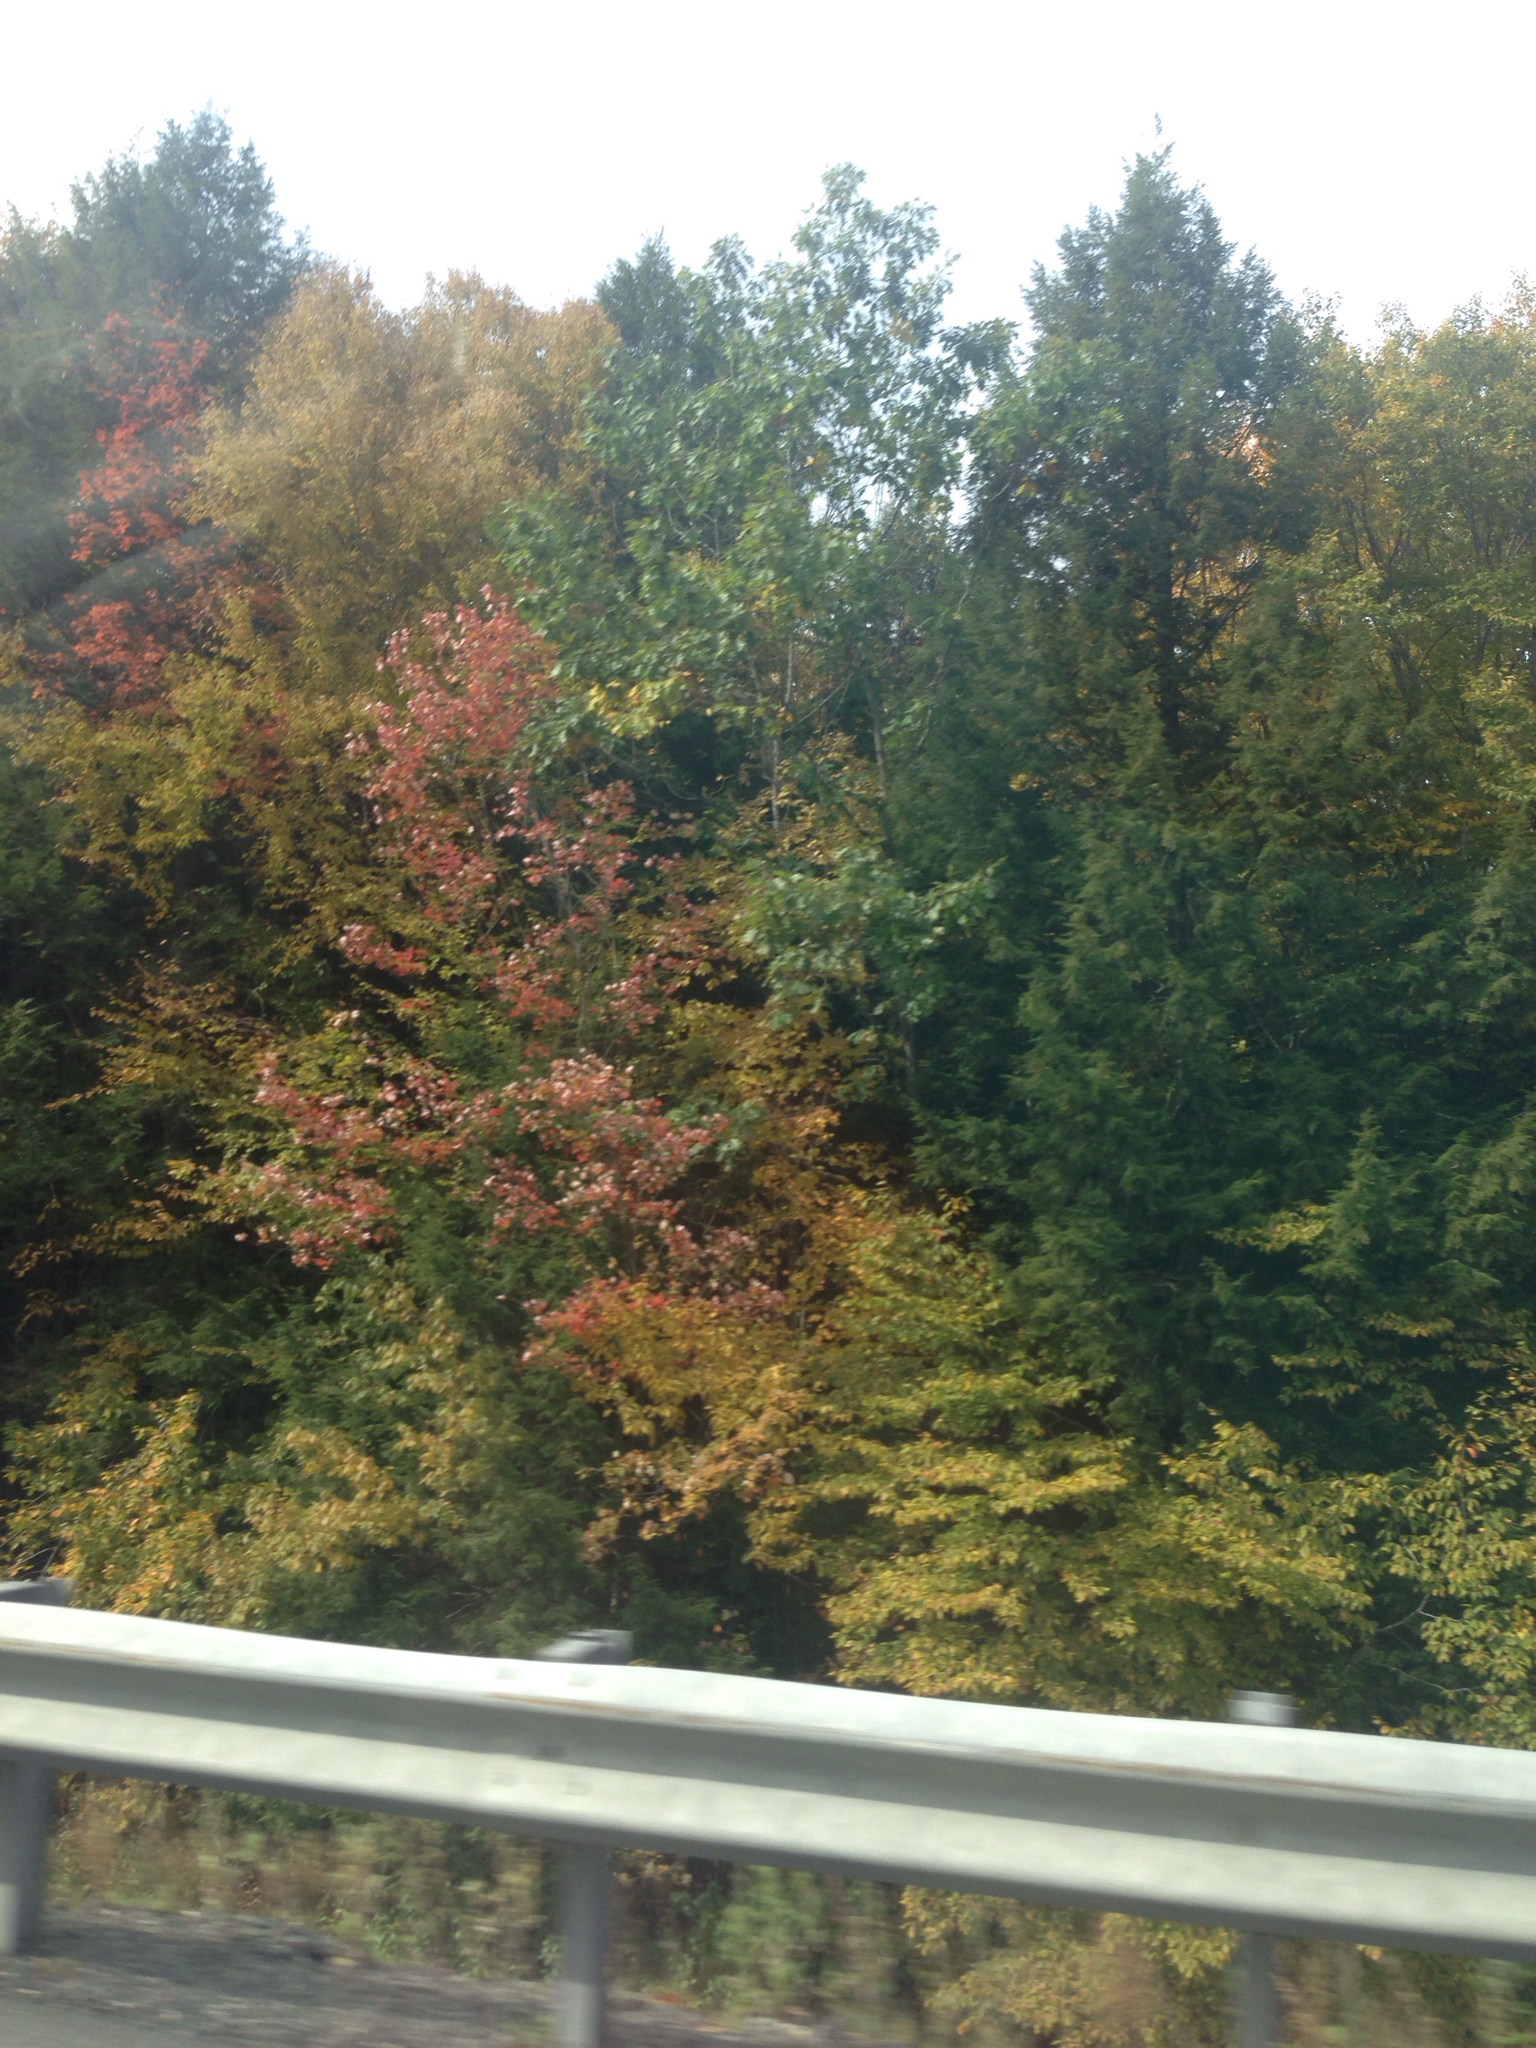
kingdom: Plantae
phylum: Tracheophyta
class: Magnoliopsida
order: Sapindales
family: Sapindaceae
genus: Acer
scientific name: Acer rubrum
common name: Red maple
